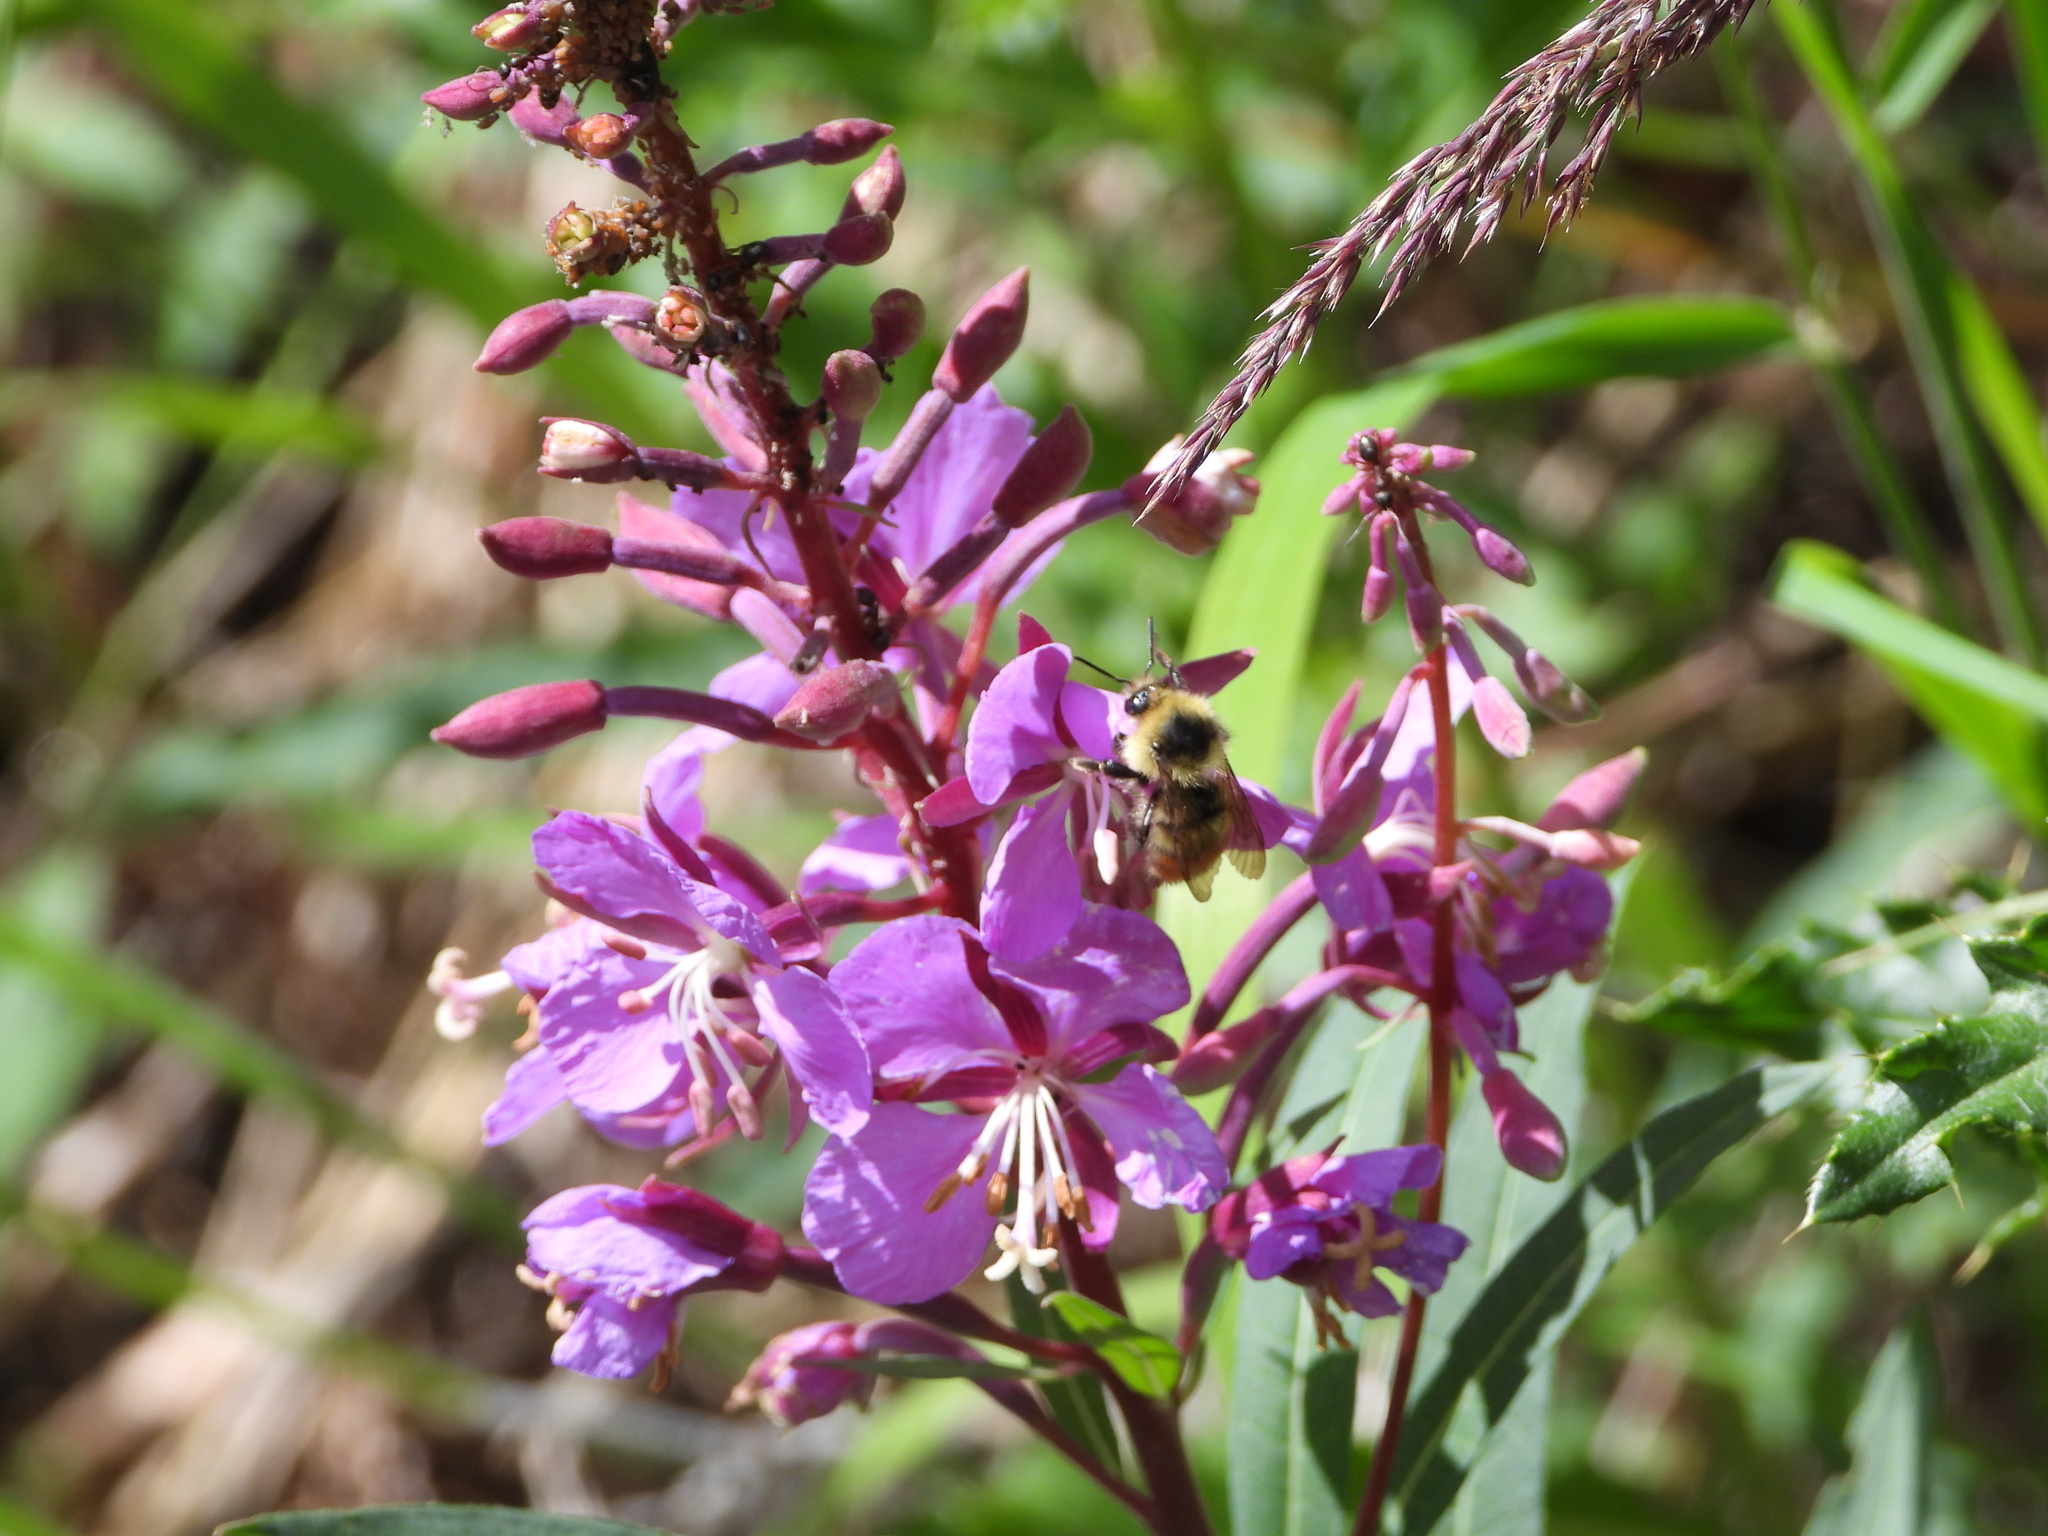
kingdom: Plantae
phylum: Tracheophyta
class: Magnoliopsida
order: Myrtales
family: Onagraceae
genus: Chamaenerion
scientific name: Chamaenerion angustifolium
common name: Fireweed
